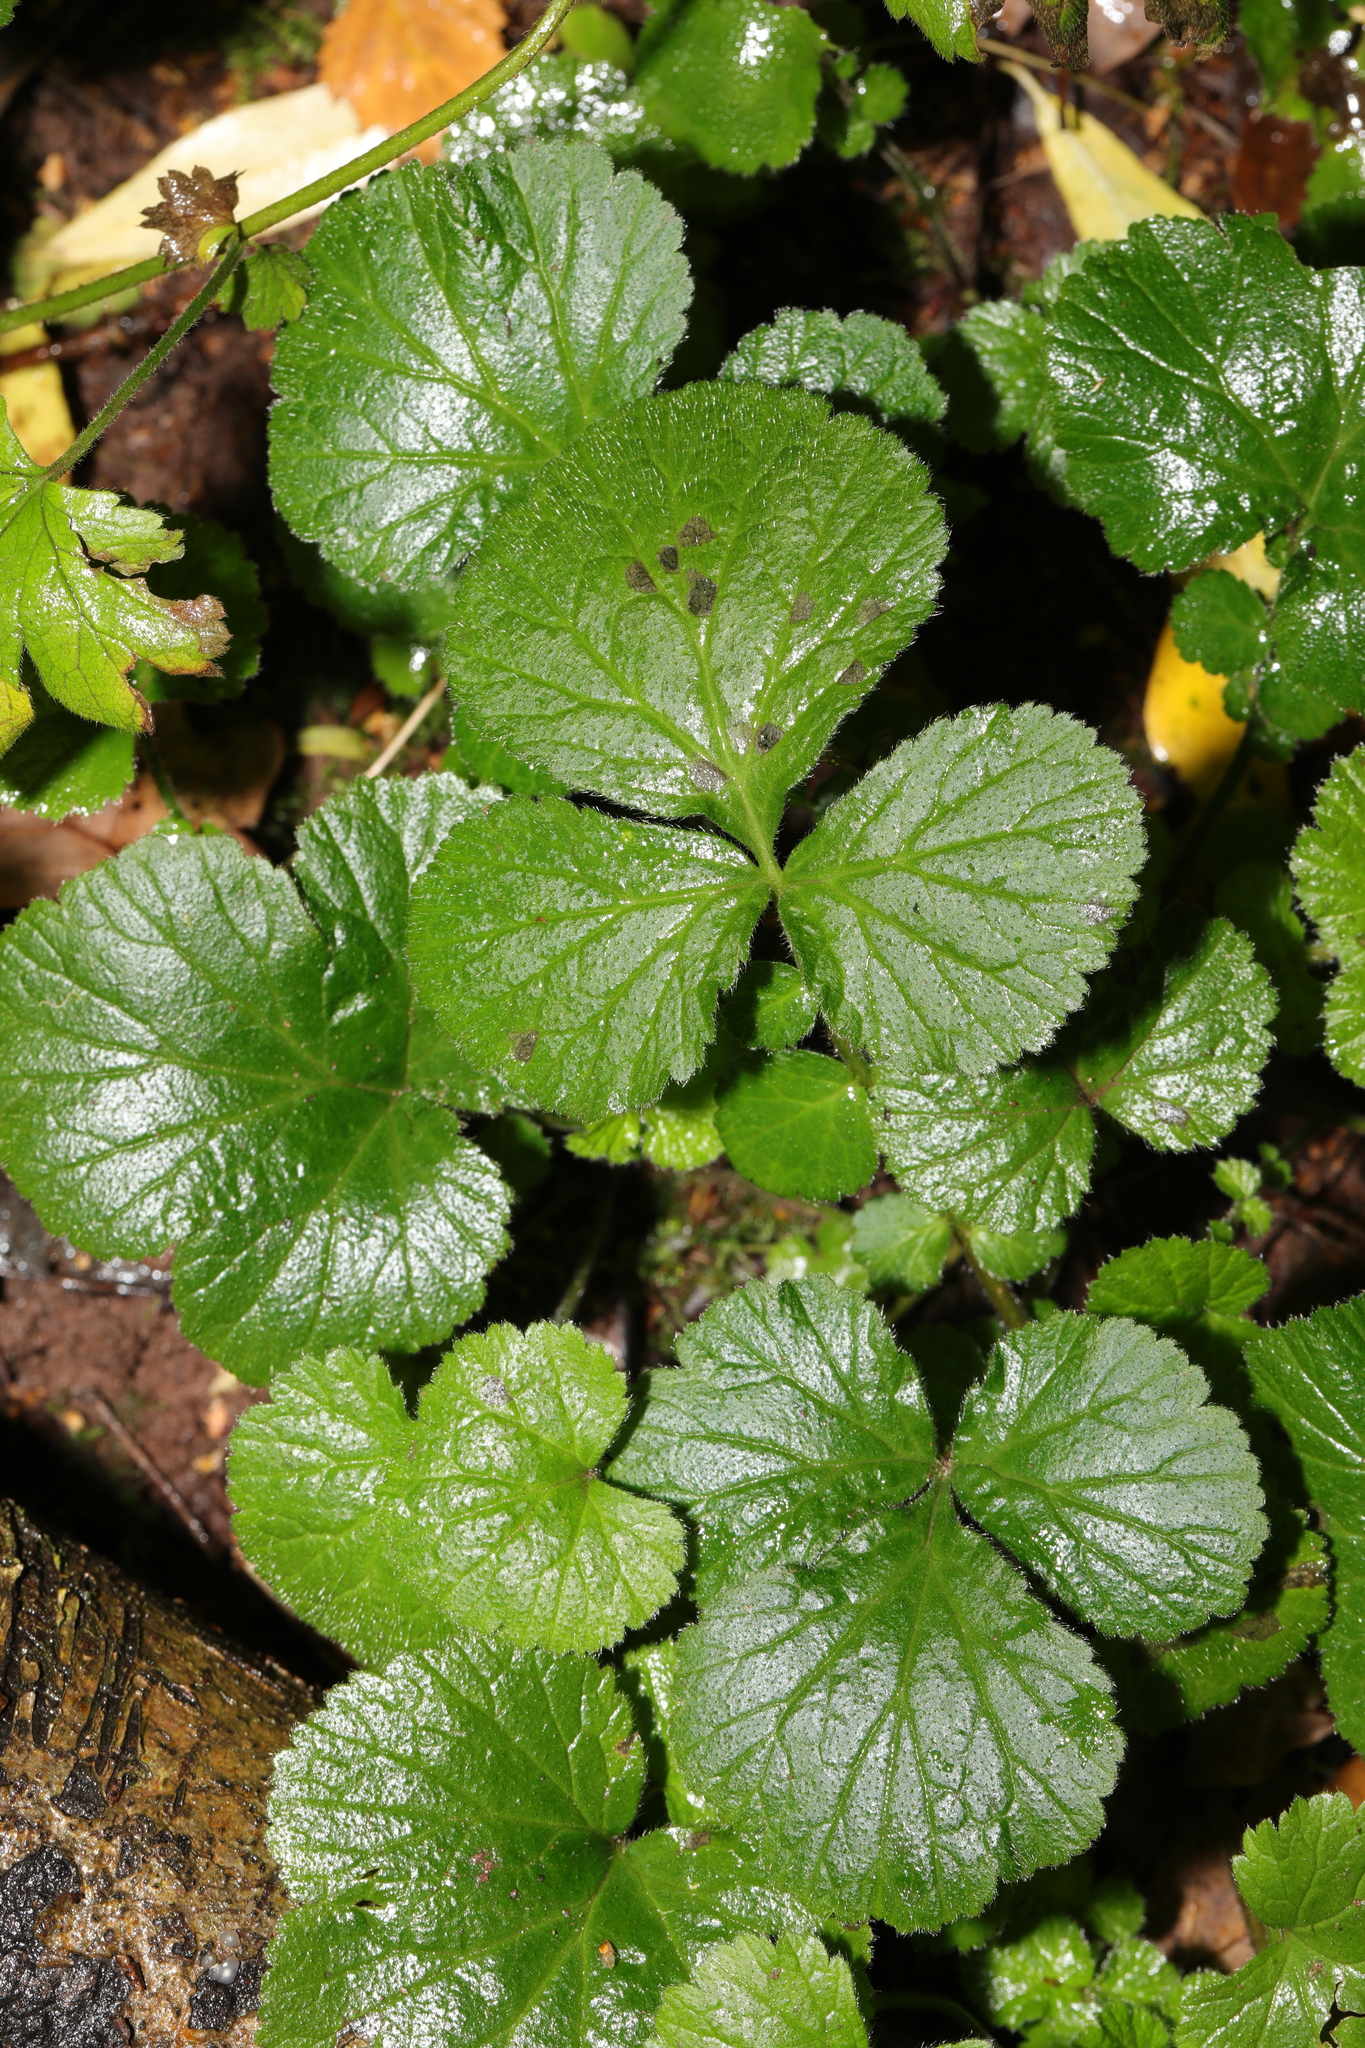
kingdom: Plantae
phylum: Tracheophyta
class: Magnoliopsida
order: Rosales
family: Rosaceae
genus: Geum
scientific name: Geum urbanum
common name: Wood avens
